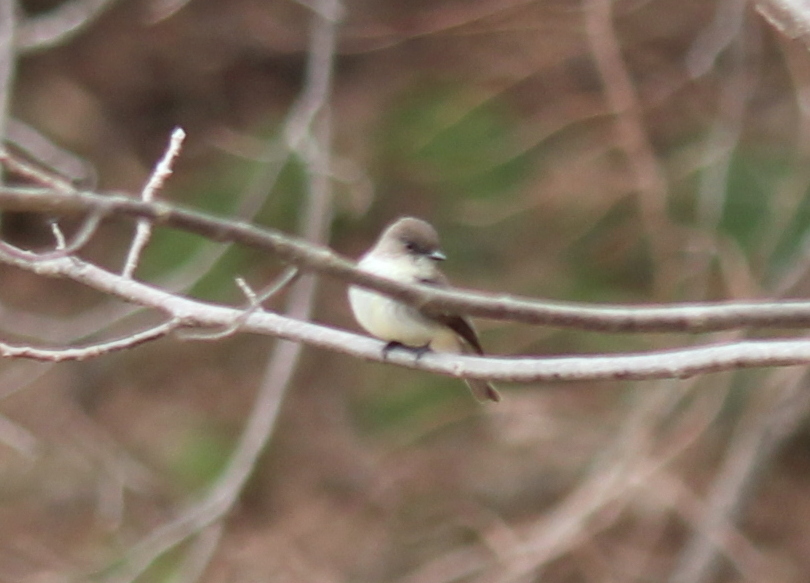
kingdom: Animalia
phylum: Chordata
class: Aves
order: Passeriformes
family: Tyrannidae
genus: Sayornis
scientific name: Sayornis phoebe
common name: Eastern phoebe
